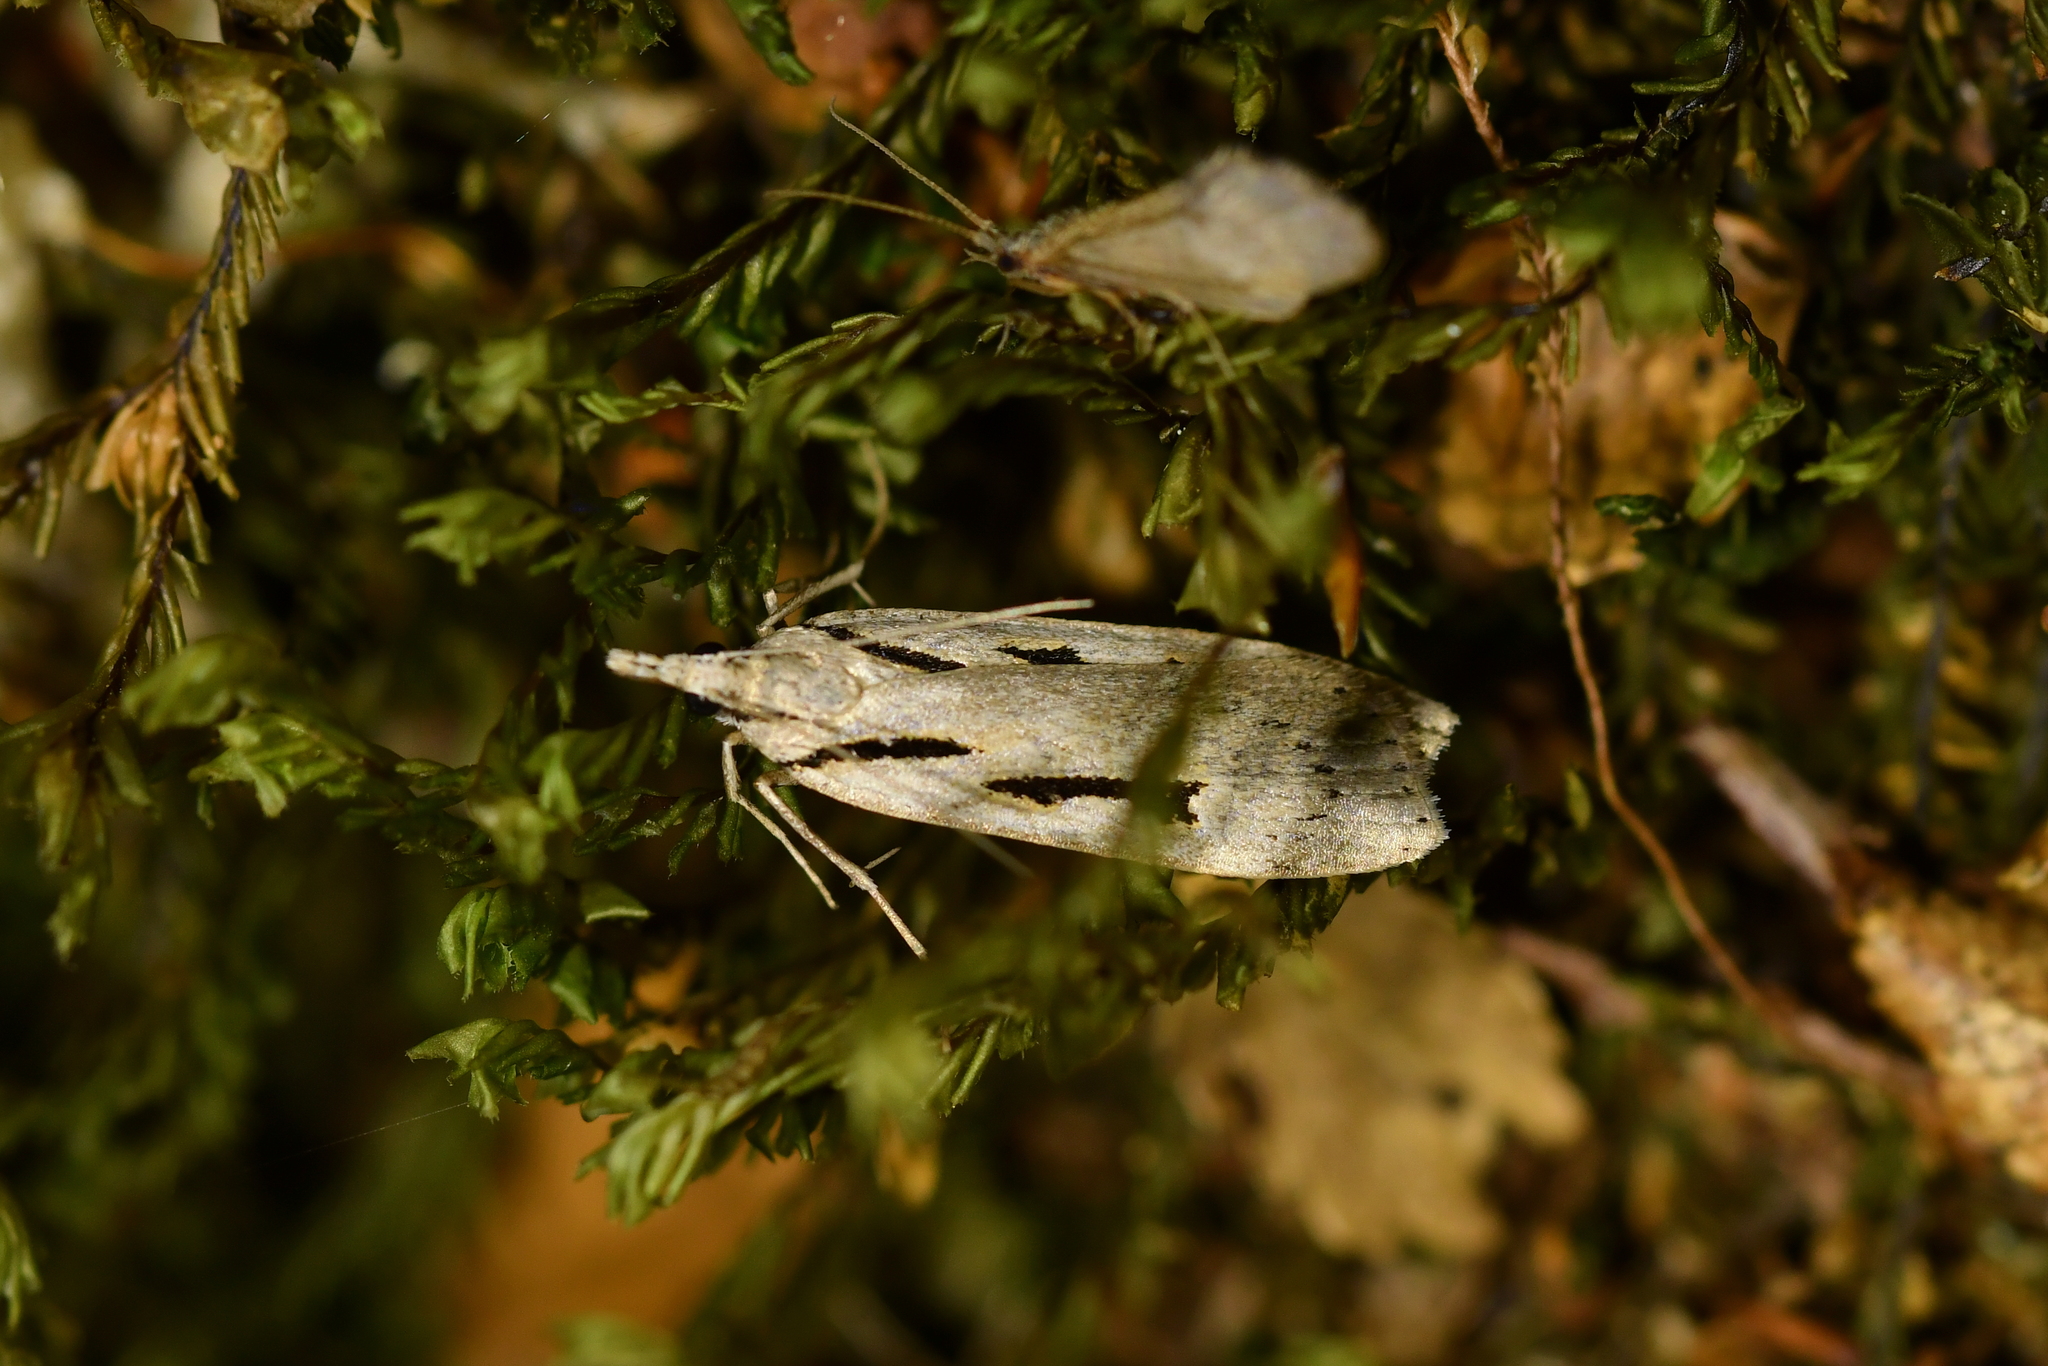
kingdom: Animalia
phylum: Arthropoda
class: Insecta
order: Lepidoptera
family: Crambidae
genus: Scoparia
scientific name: Scoparia rotuellus
